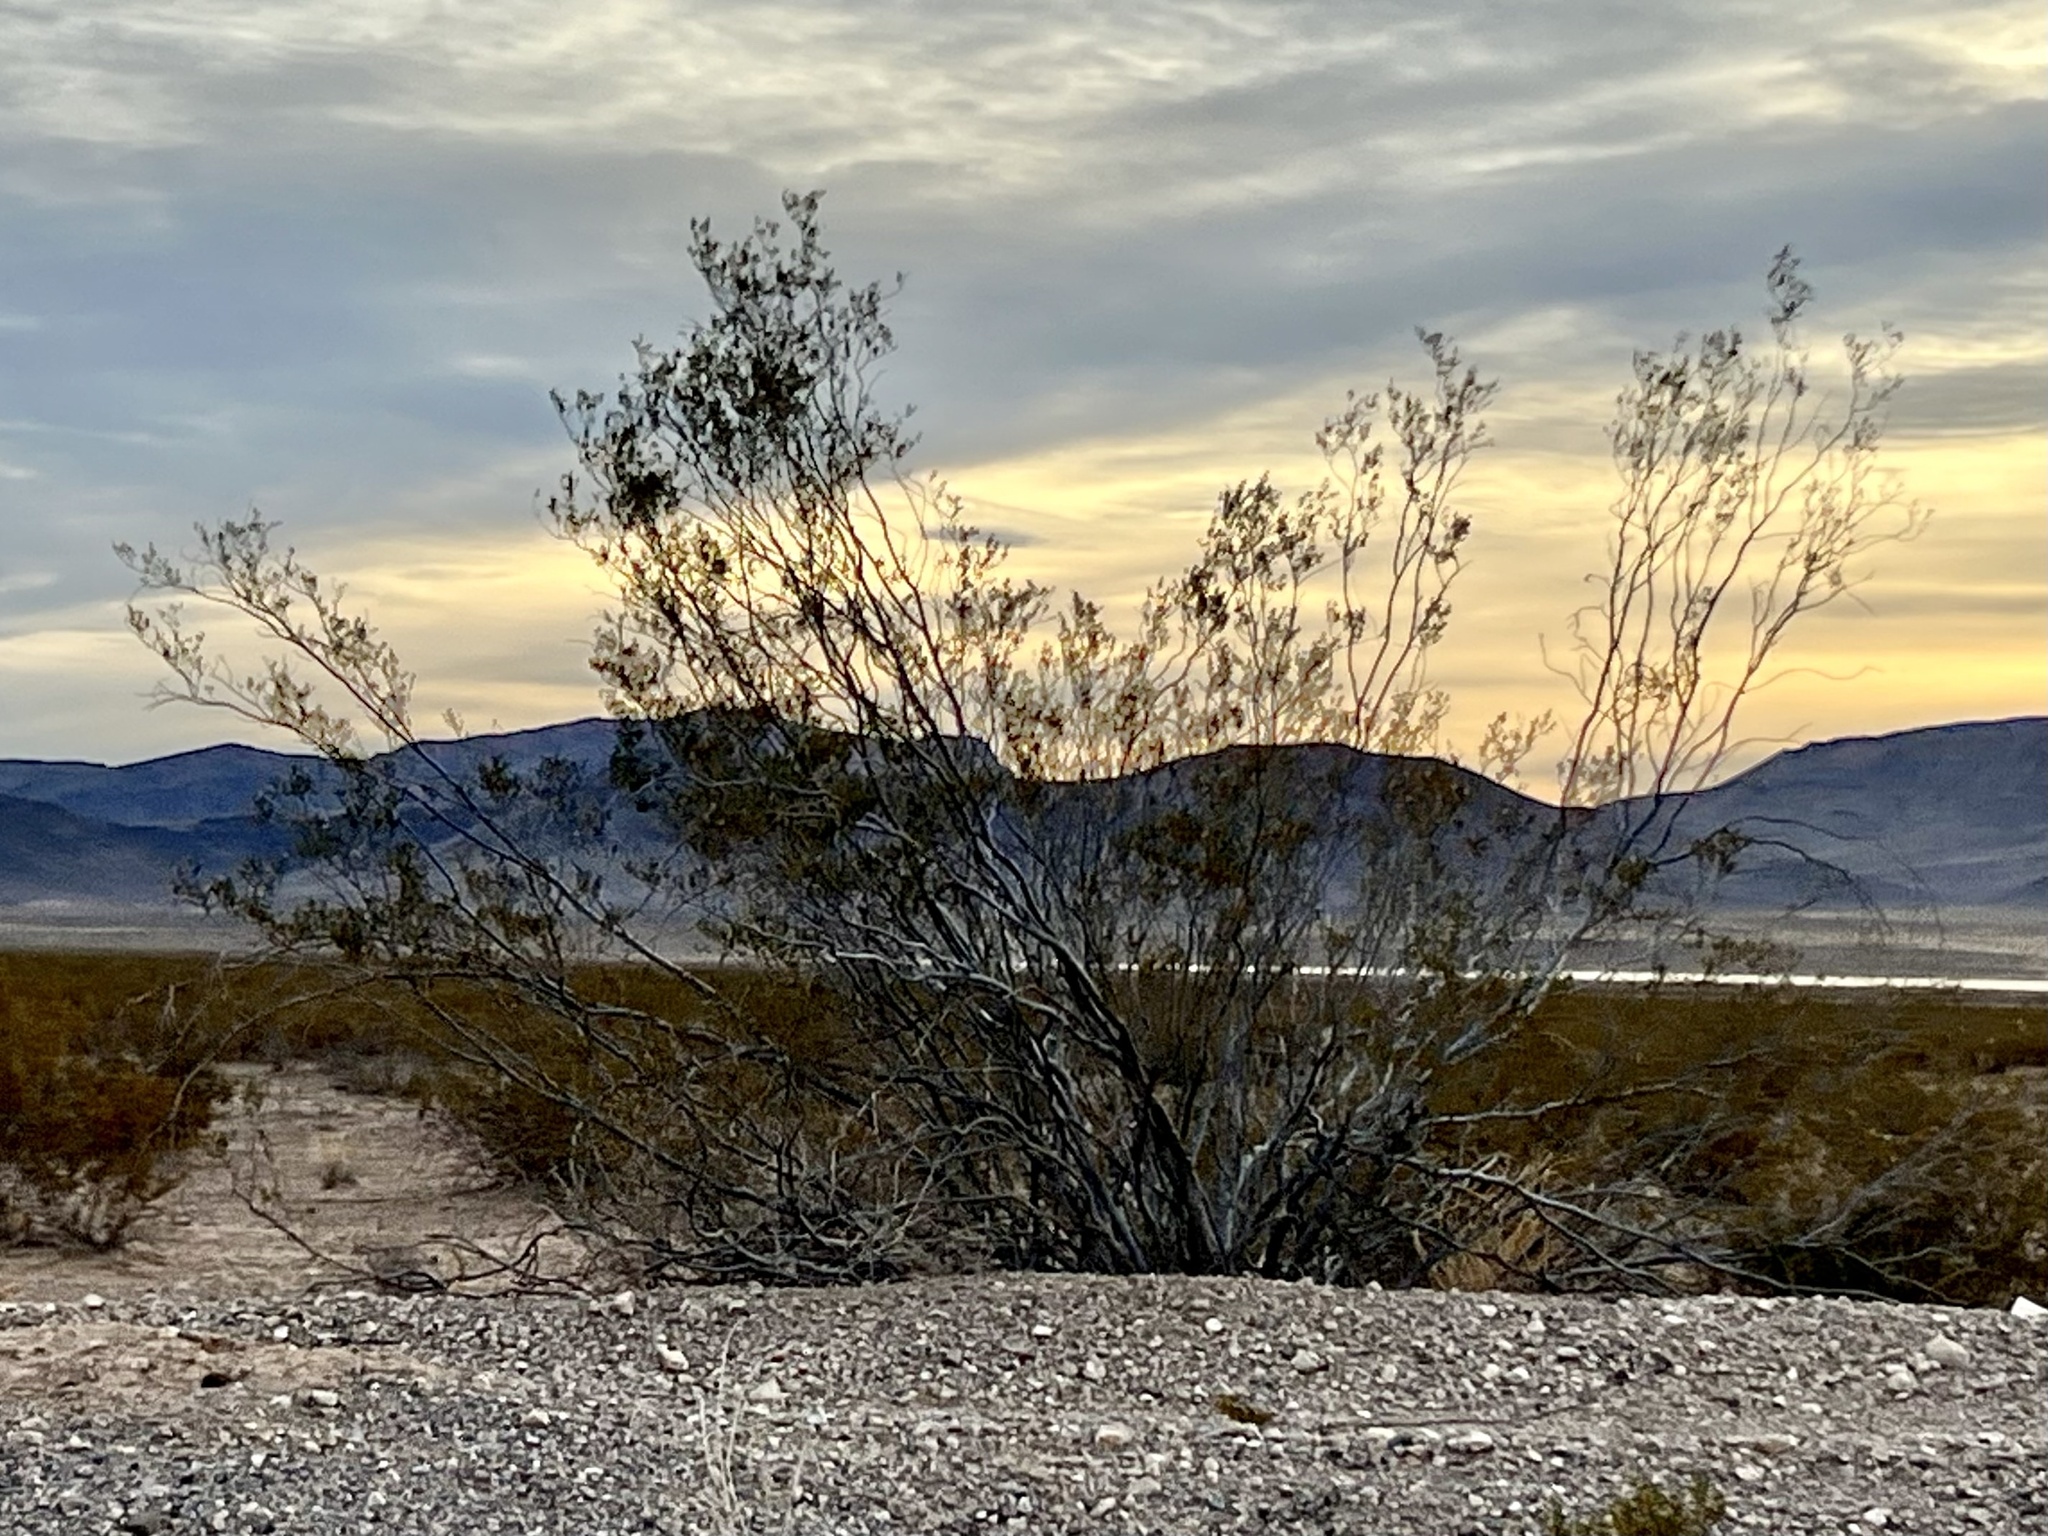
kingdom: Plantae
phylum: Tracheophyta
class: Magnoliopsida
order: Zygophyllales
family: Zygophyllaceae
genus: Larrea
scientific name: Larrea tridentata
